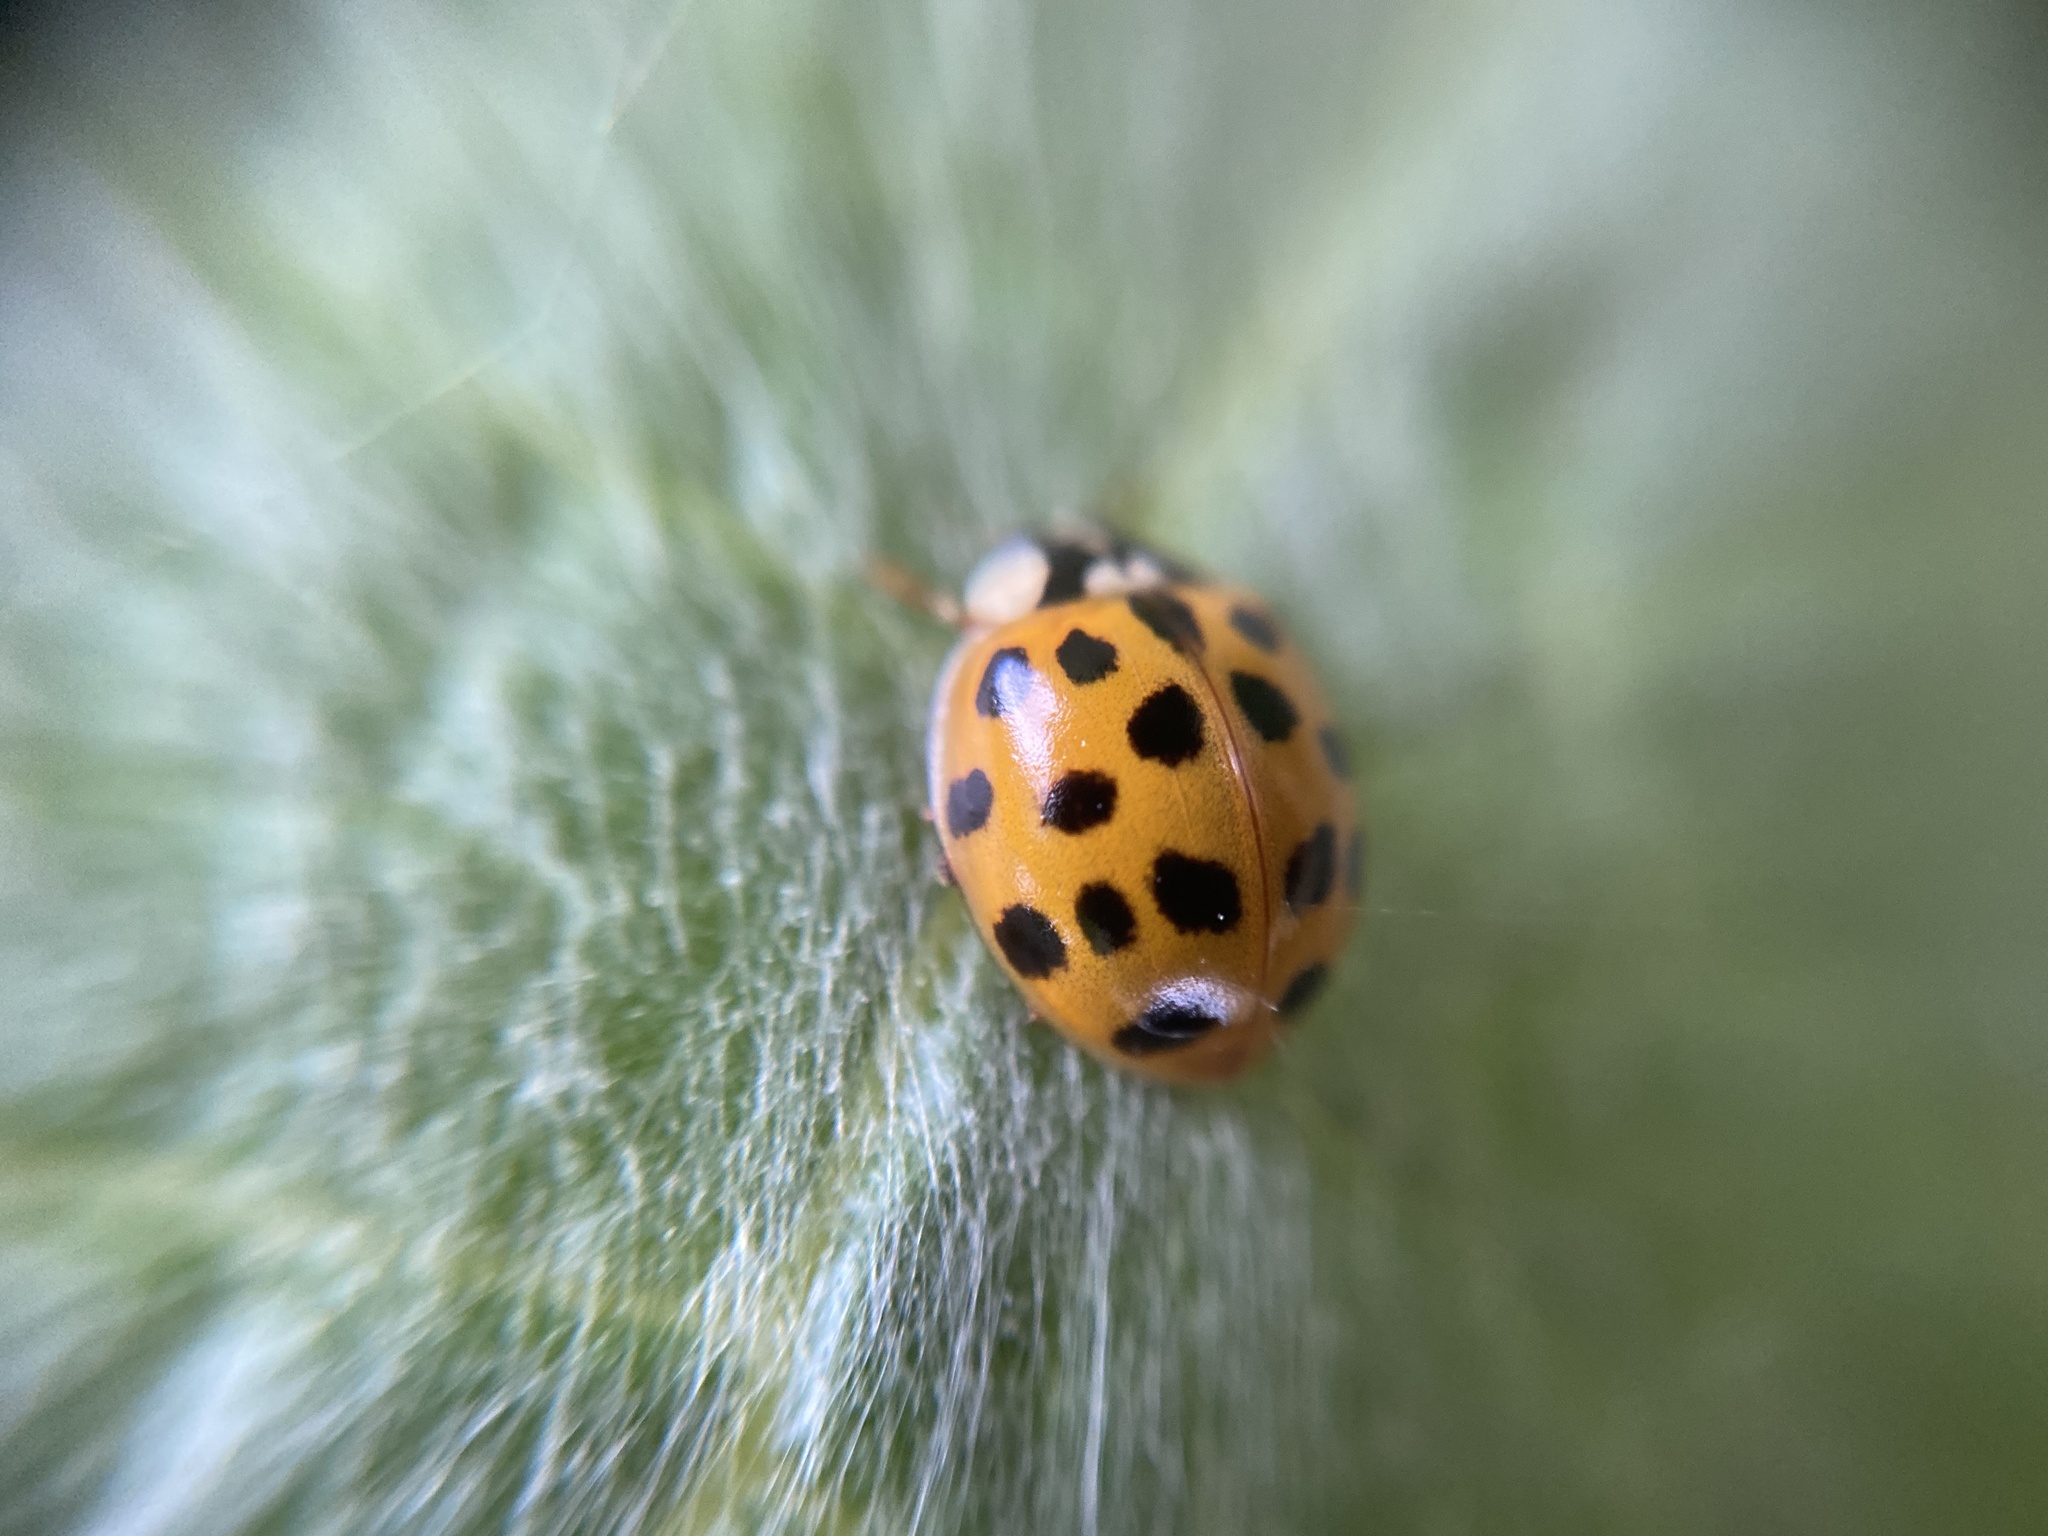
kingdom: Animalia
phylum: Arthropoda
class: Insecta
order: Coleoptera
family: Coccinellidae
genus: Harmonia
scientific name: Harmonia axyridis
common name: Harlequin ladybird
